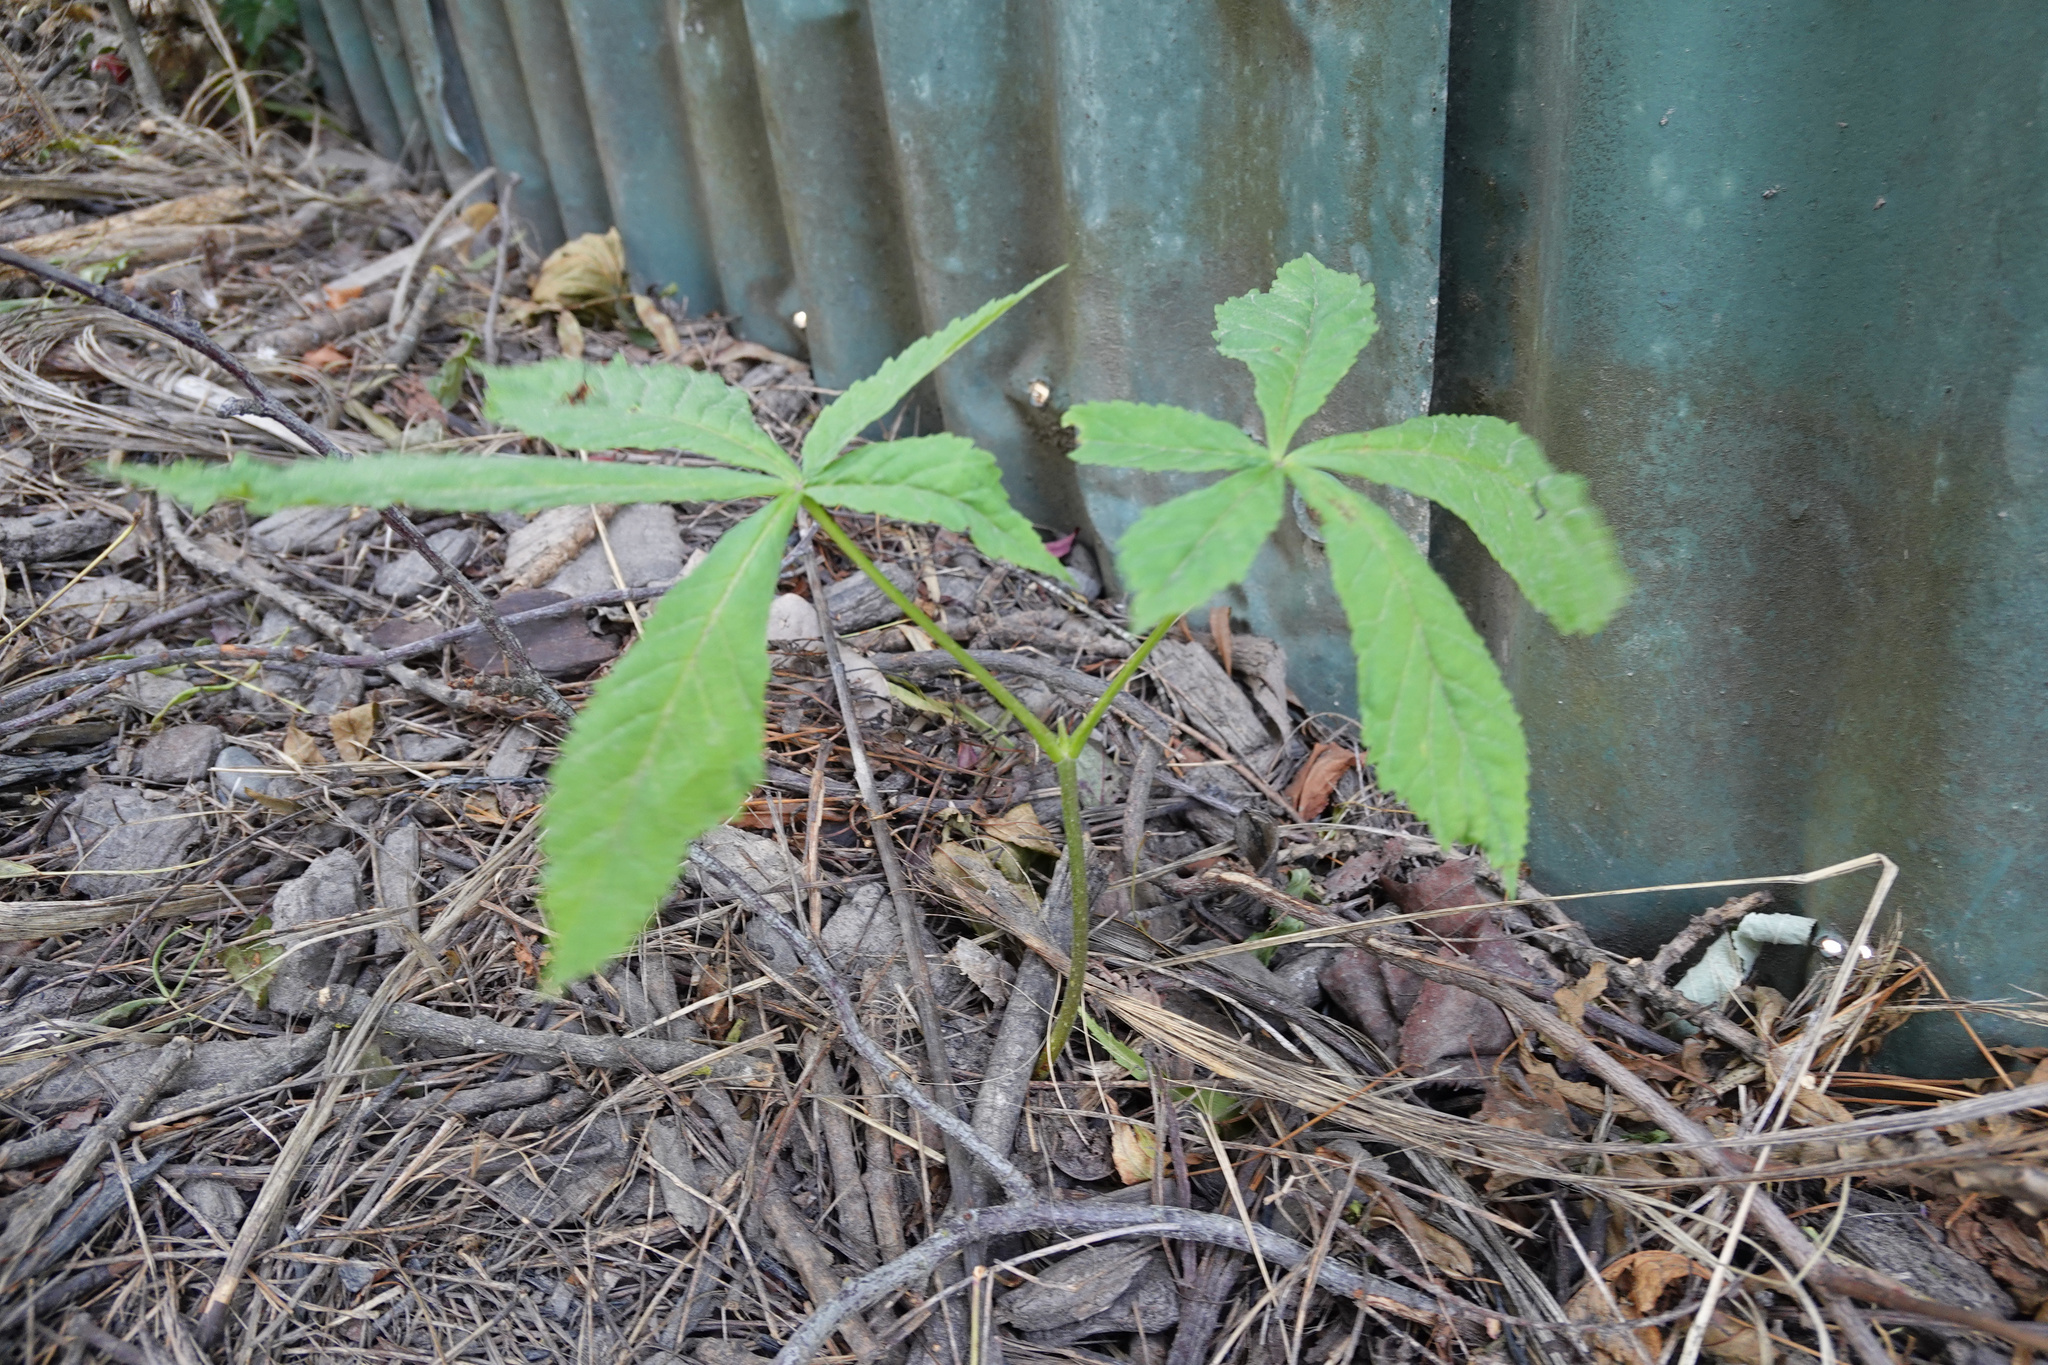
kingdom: Plantae
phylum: Tracheophyta
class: Magnoliopsida
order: Sapindales
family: Sapindaceae
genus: Aesculus
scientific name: Aesculus hippocastanum
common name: Horse-chestnut
